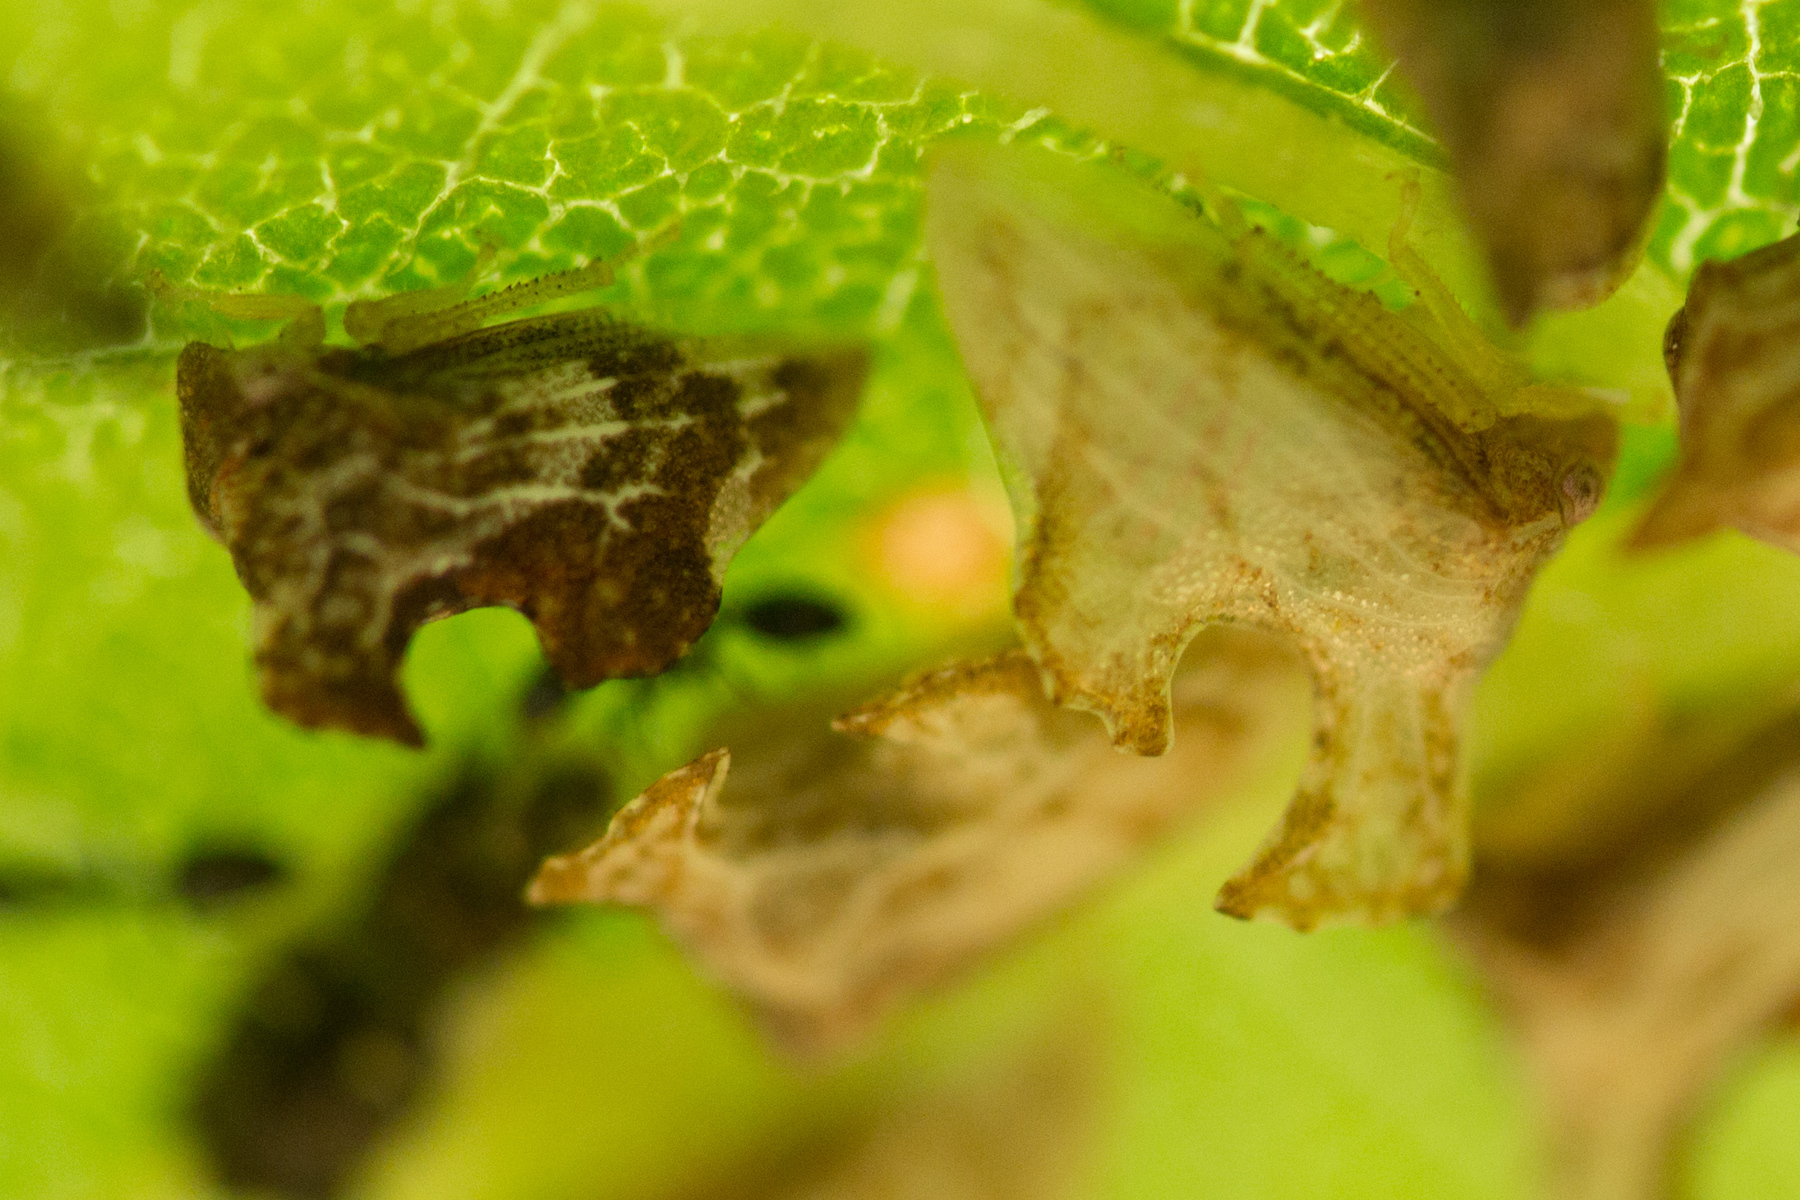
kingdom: Animalia
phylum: Arthropoda
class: Insecta
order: Hemiptera
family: Membracidae
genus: Entylia
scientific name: Entylia carinata
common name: Keeled treehopper
